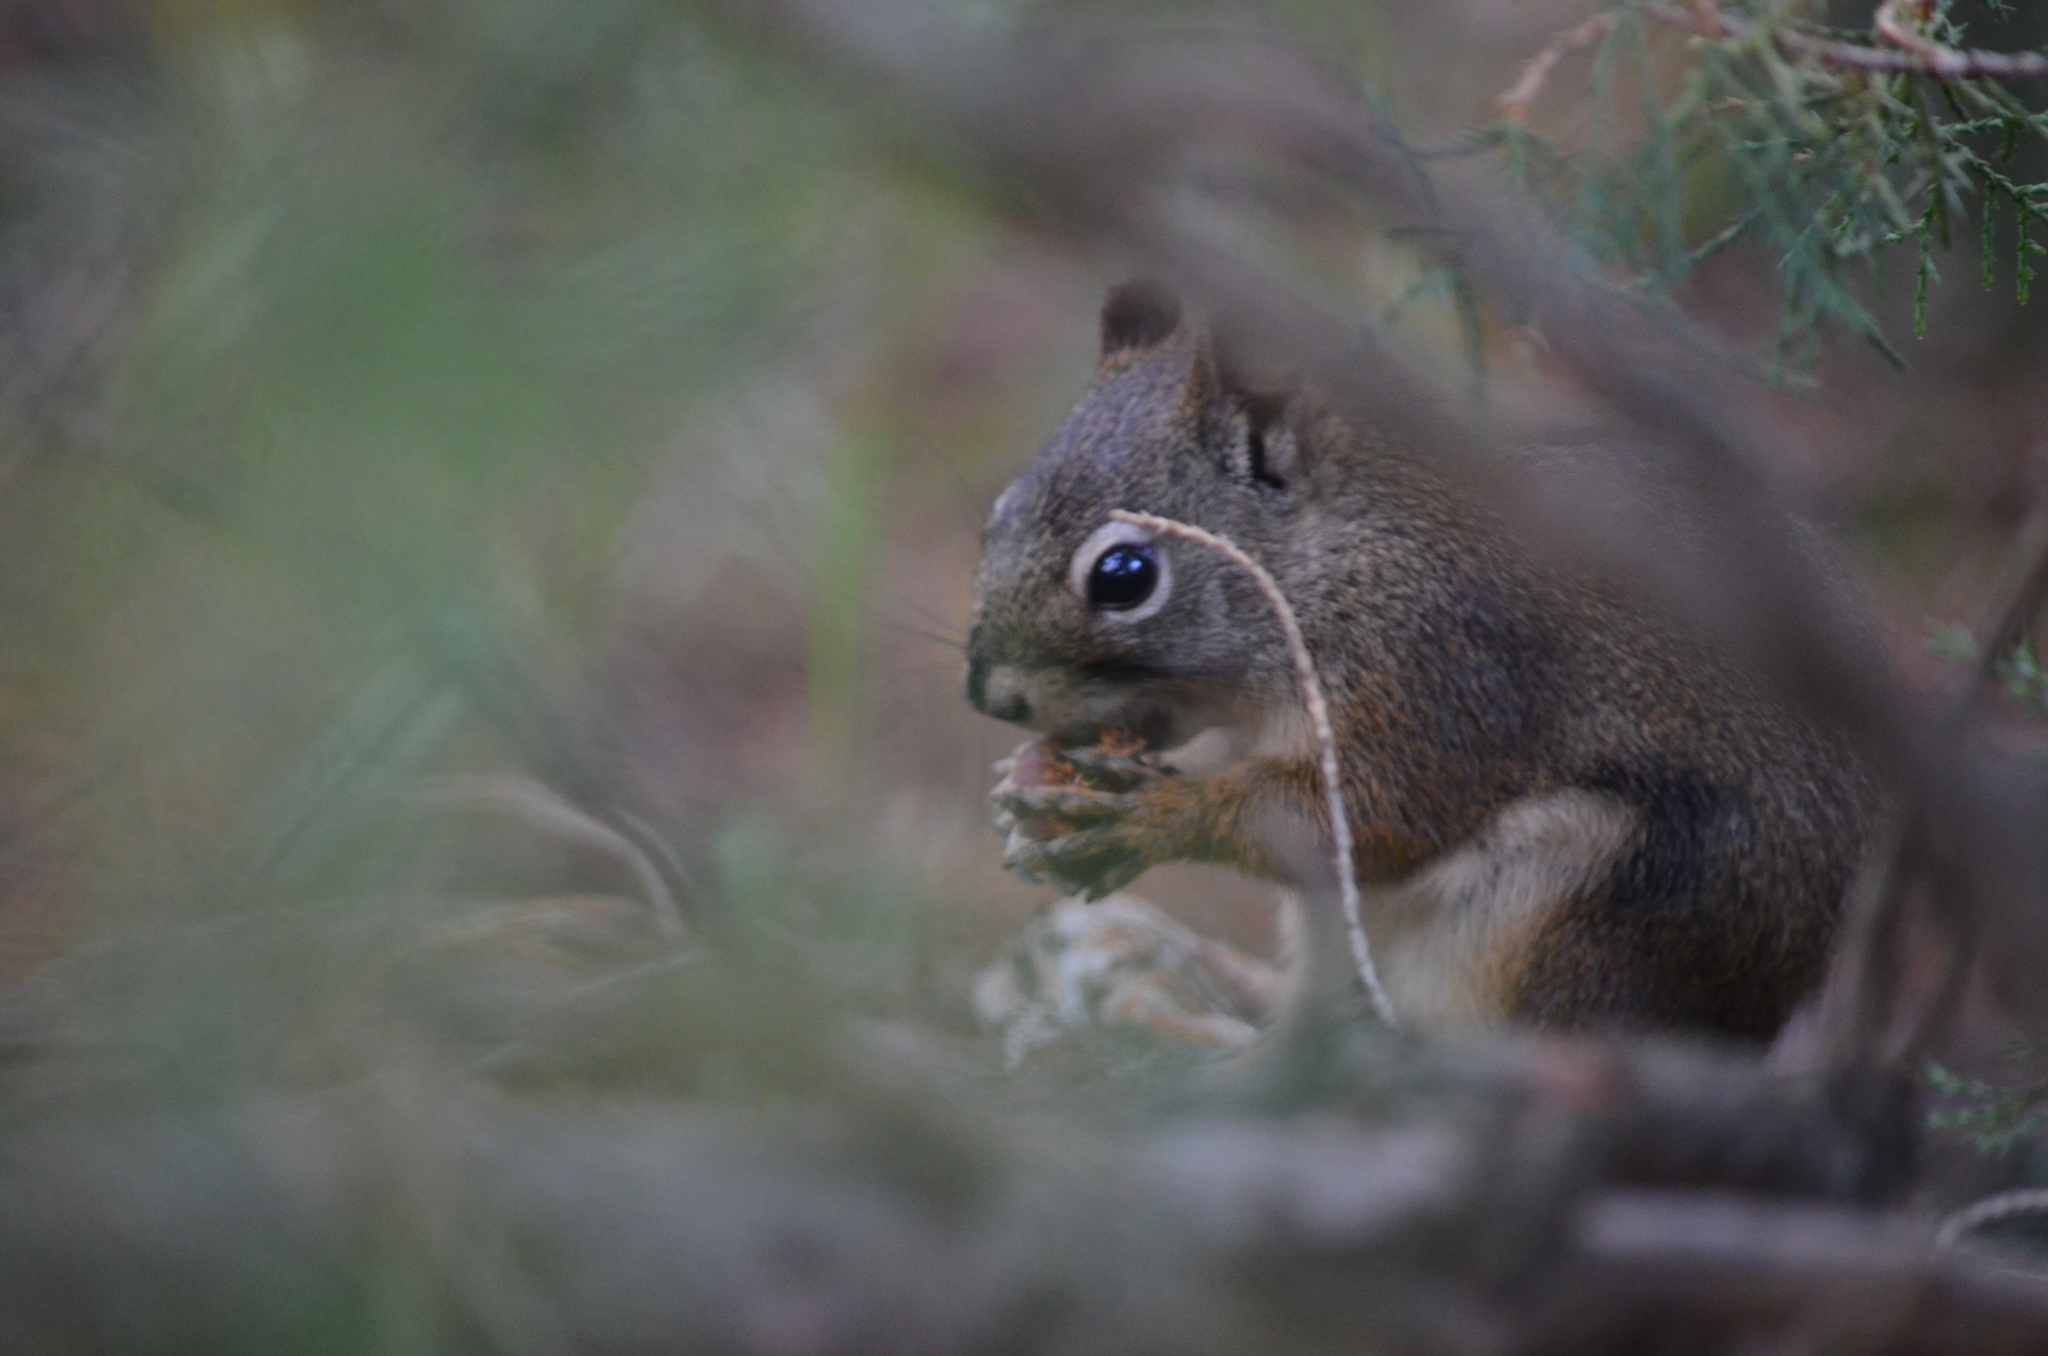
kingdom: Animalia
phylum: Chordata
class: Mammalia
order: Rodentia
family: Sciuridae
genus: Tamiasciurus
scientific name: Tamiasciurus hudsonicus
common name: Red squirrel
